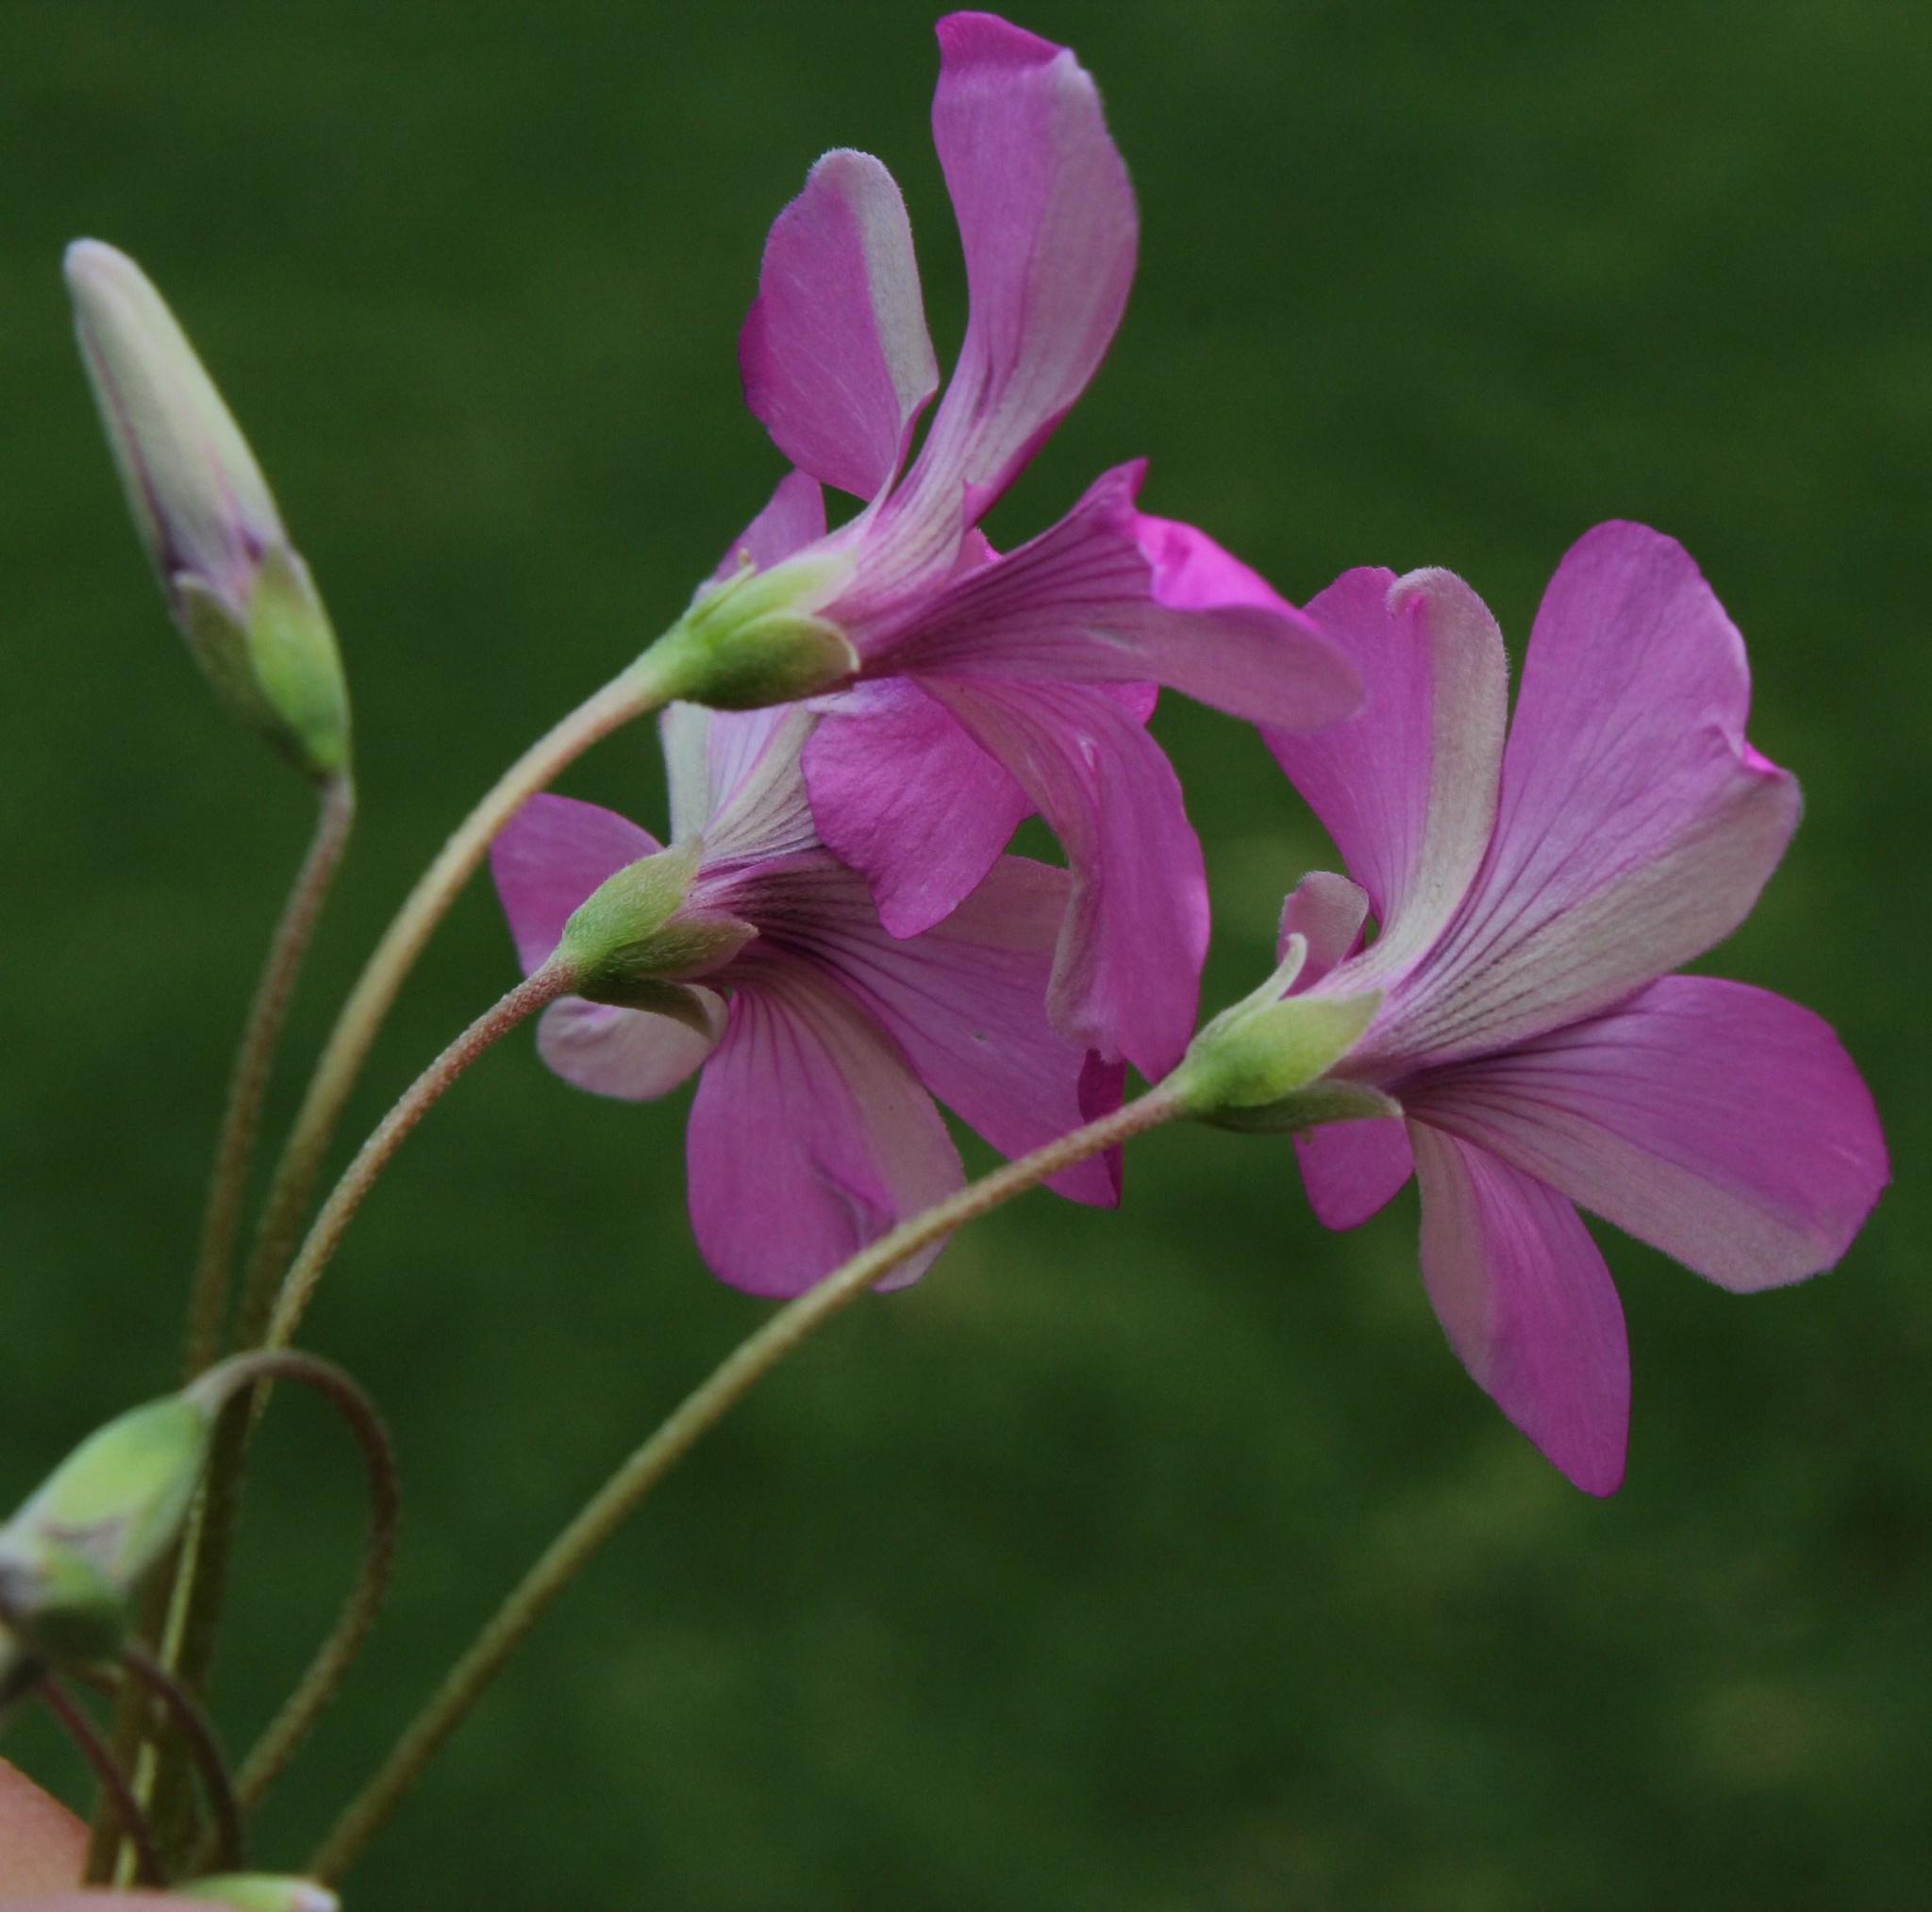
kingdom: Plantae
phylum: Tracheophyta
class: Magnoliopsida
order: Oxalidales
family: Oxalidaceae
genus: Oxalis
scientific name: Oxalis articulata
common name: Pink-sorrel
